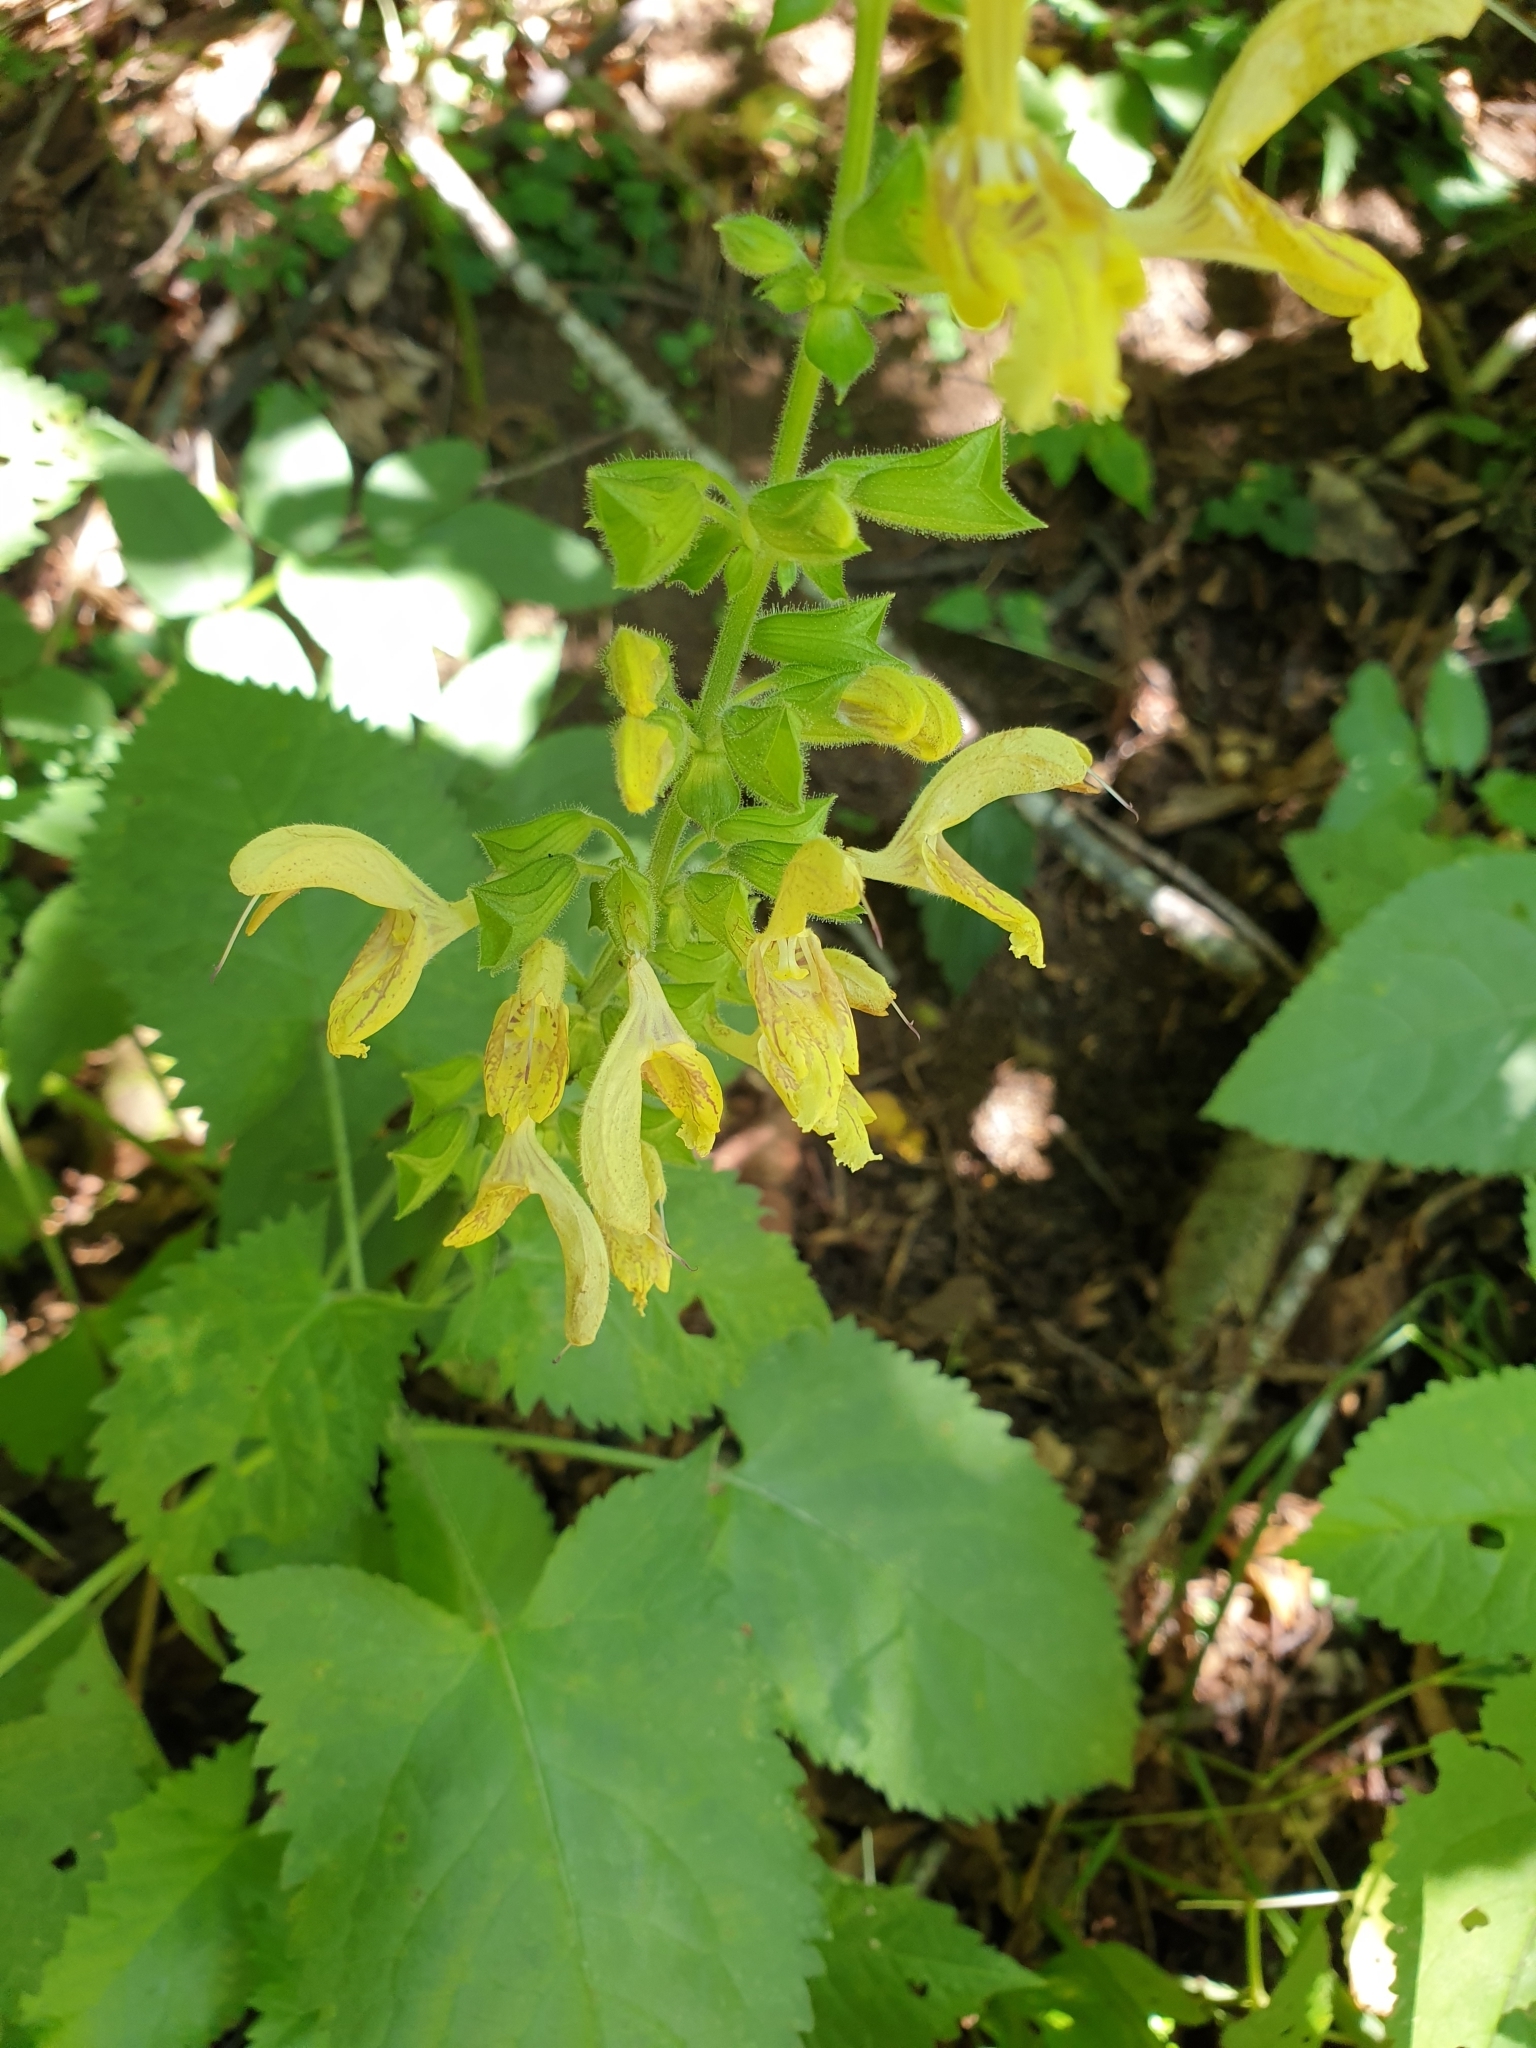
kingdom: Plantae
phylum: Tracheophyta
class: Magnoliopsida
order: Lamiales
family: Lamiaceae
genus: Salvia
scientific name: Salvia glutinosa
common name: Sticky clary
